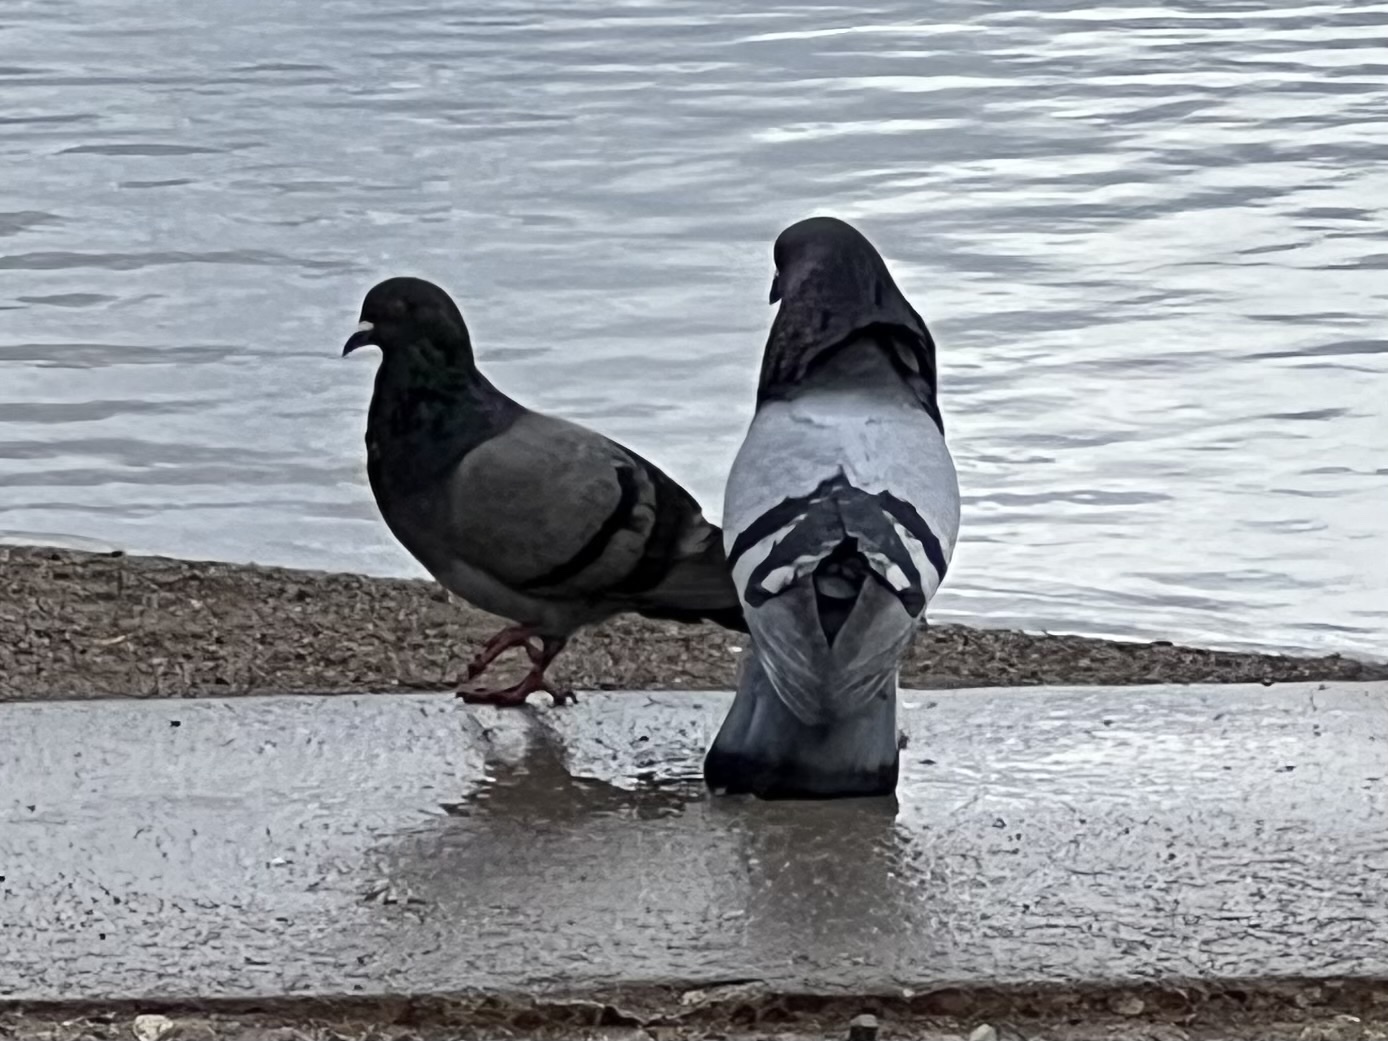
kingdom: Animalia
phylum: Chordata
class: Aves
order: Columbiformes
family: Columbidae
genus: Columba
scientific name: Columba livia
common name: Rock pigeon
